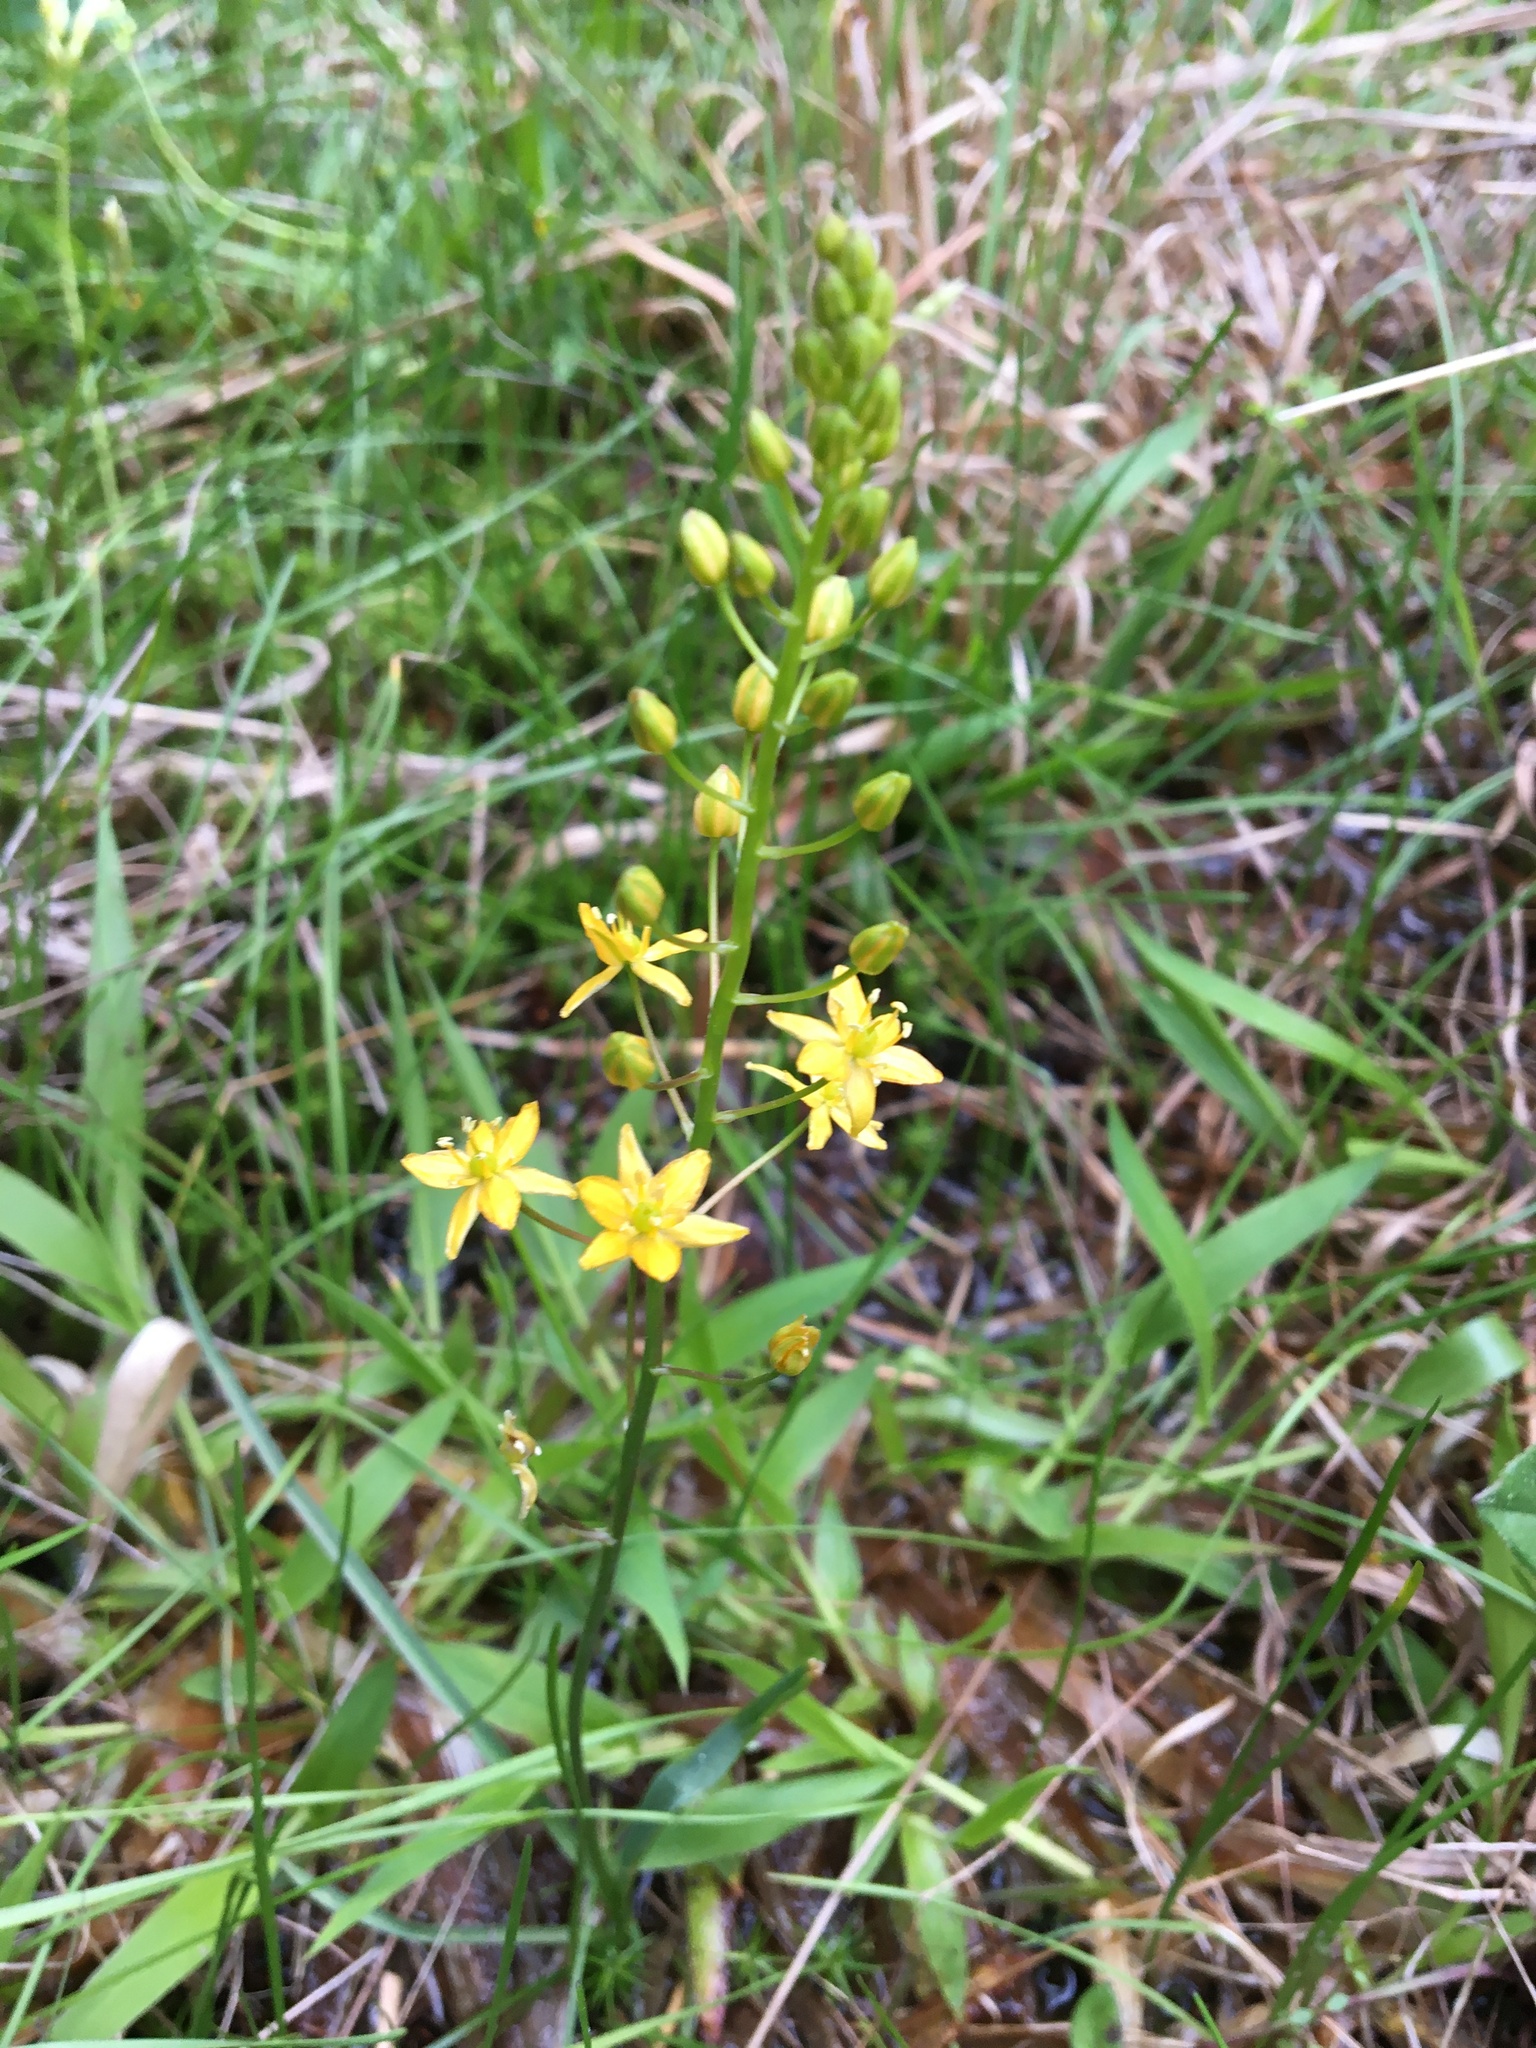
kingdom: Plantae
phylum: Tracheophyta
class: Liliopsida
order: Asparagales
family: Asparagaceae
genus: Schoenolirion
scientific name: Schoenolirion croceum
